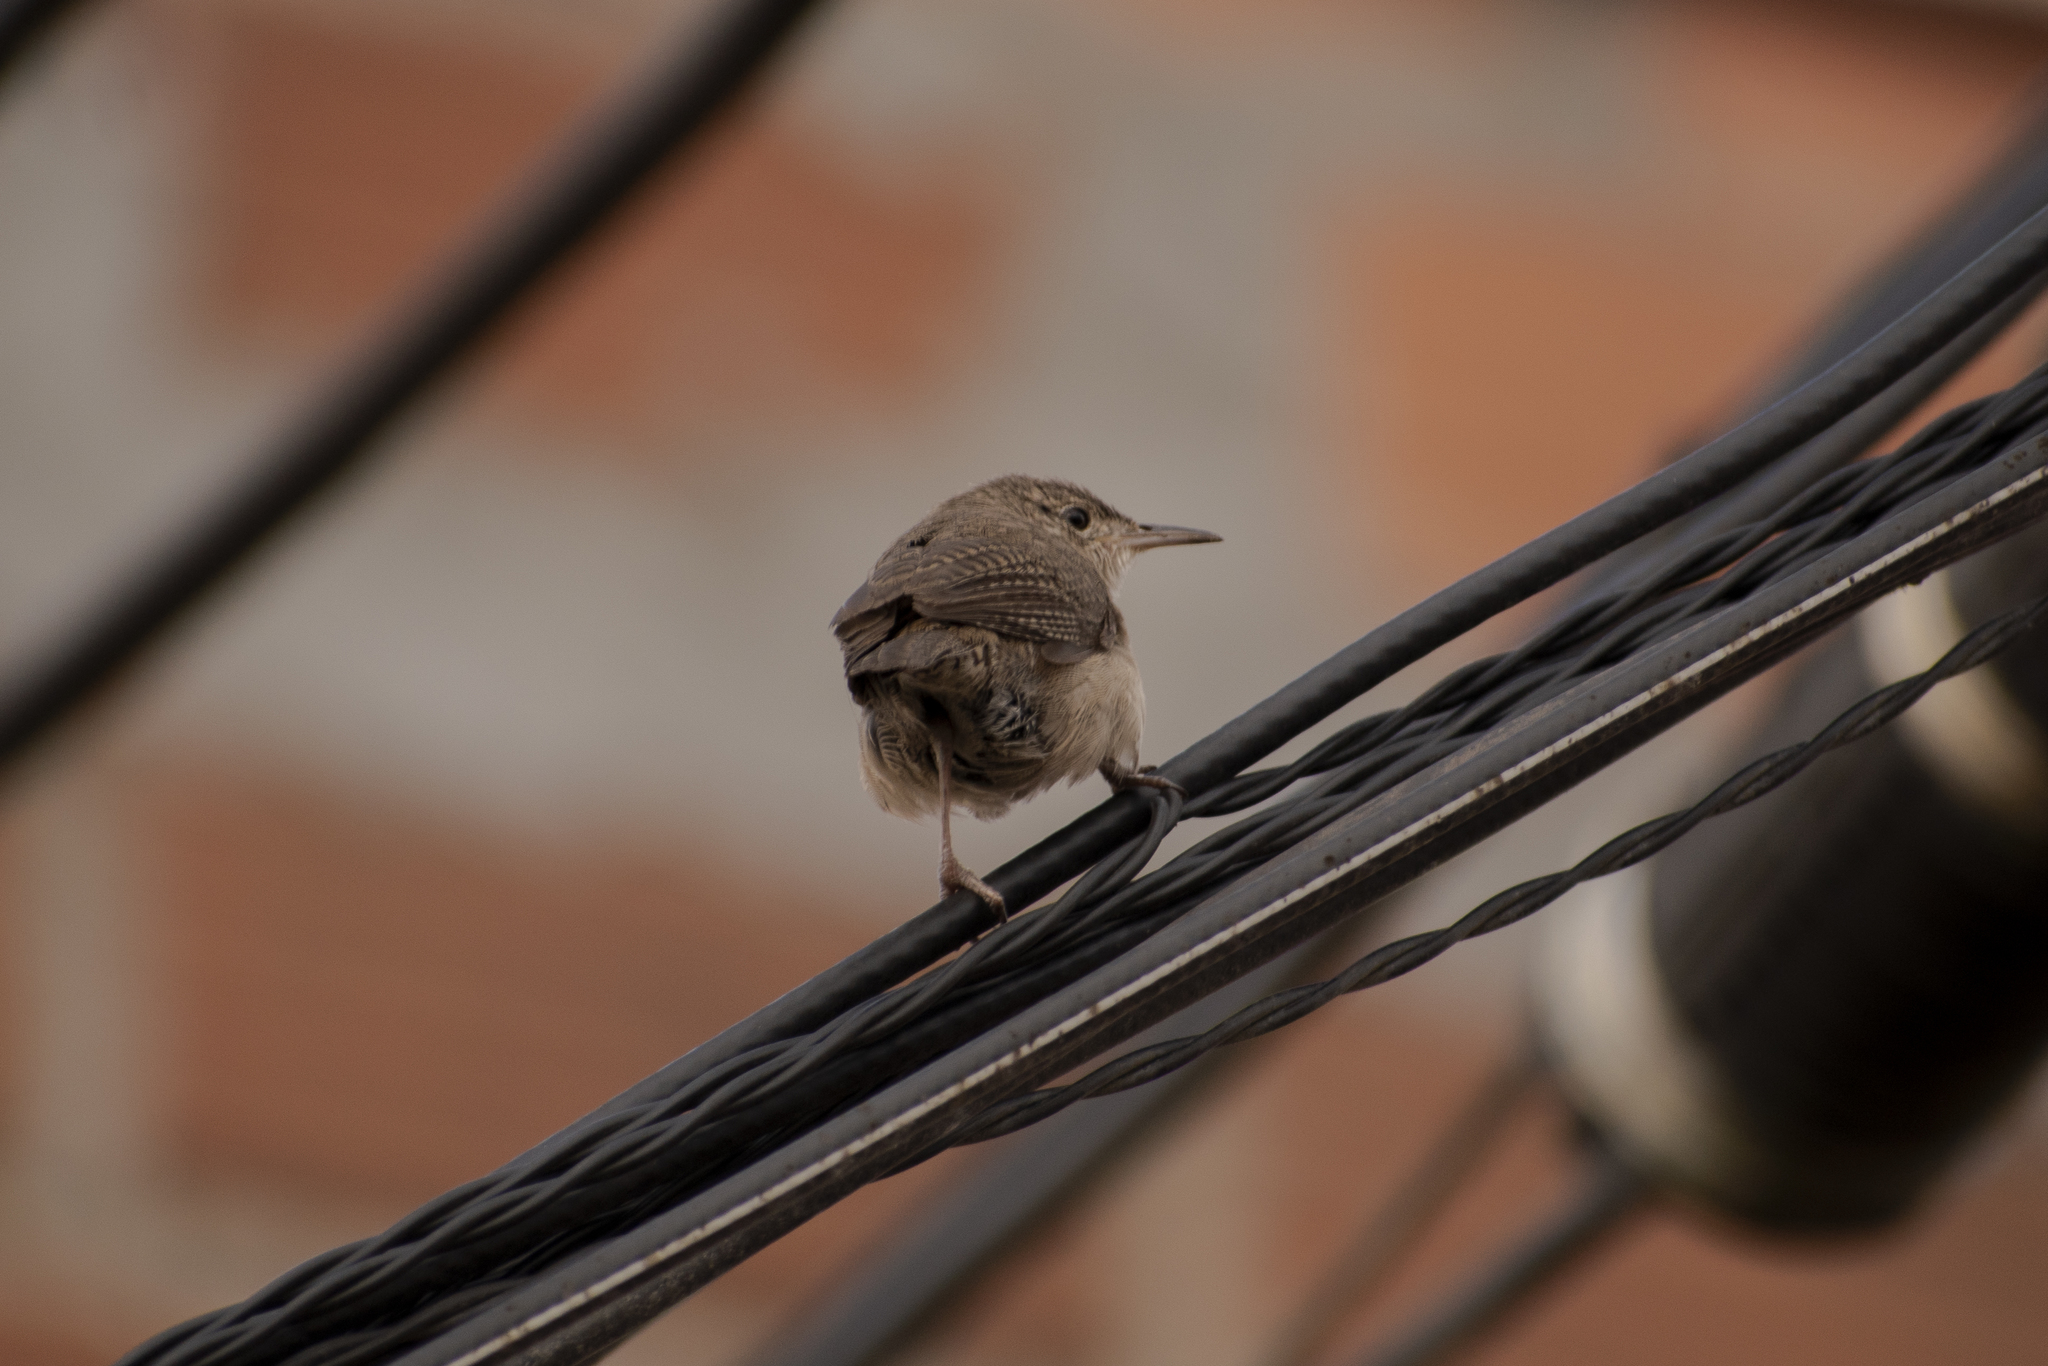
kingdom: Animalia
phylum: Chordata
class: Aves
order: Passeriformes
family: Troglodytidae
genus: Troglodytes
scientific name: Troglodytes aedon
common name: House wren
